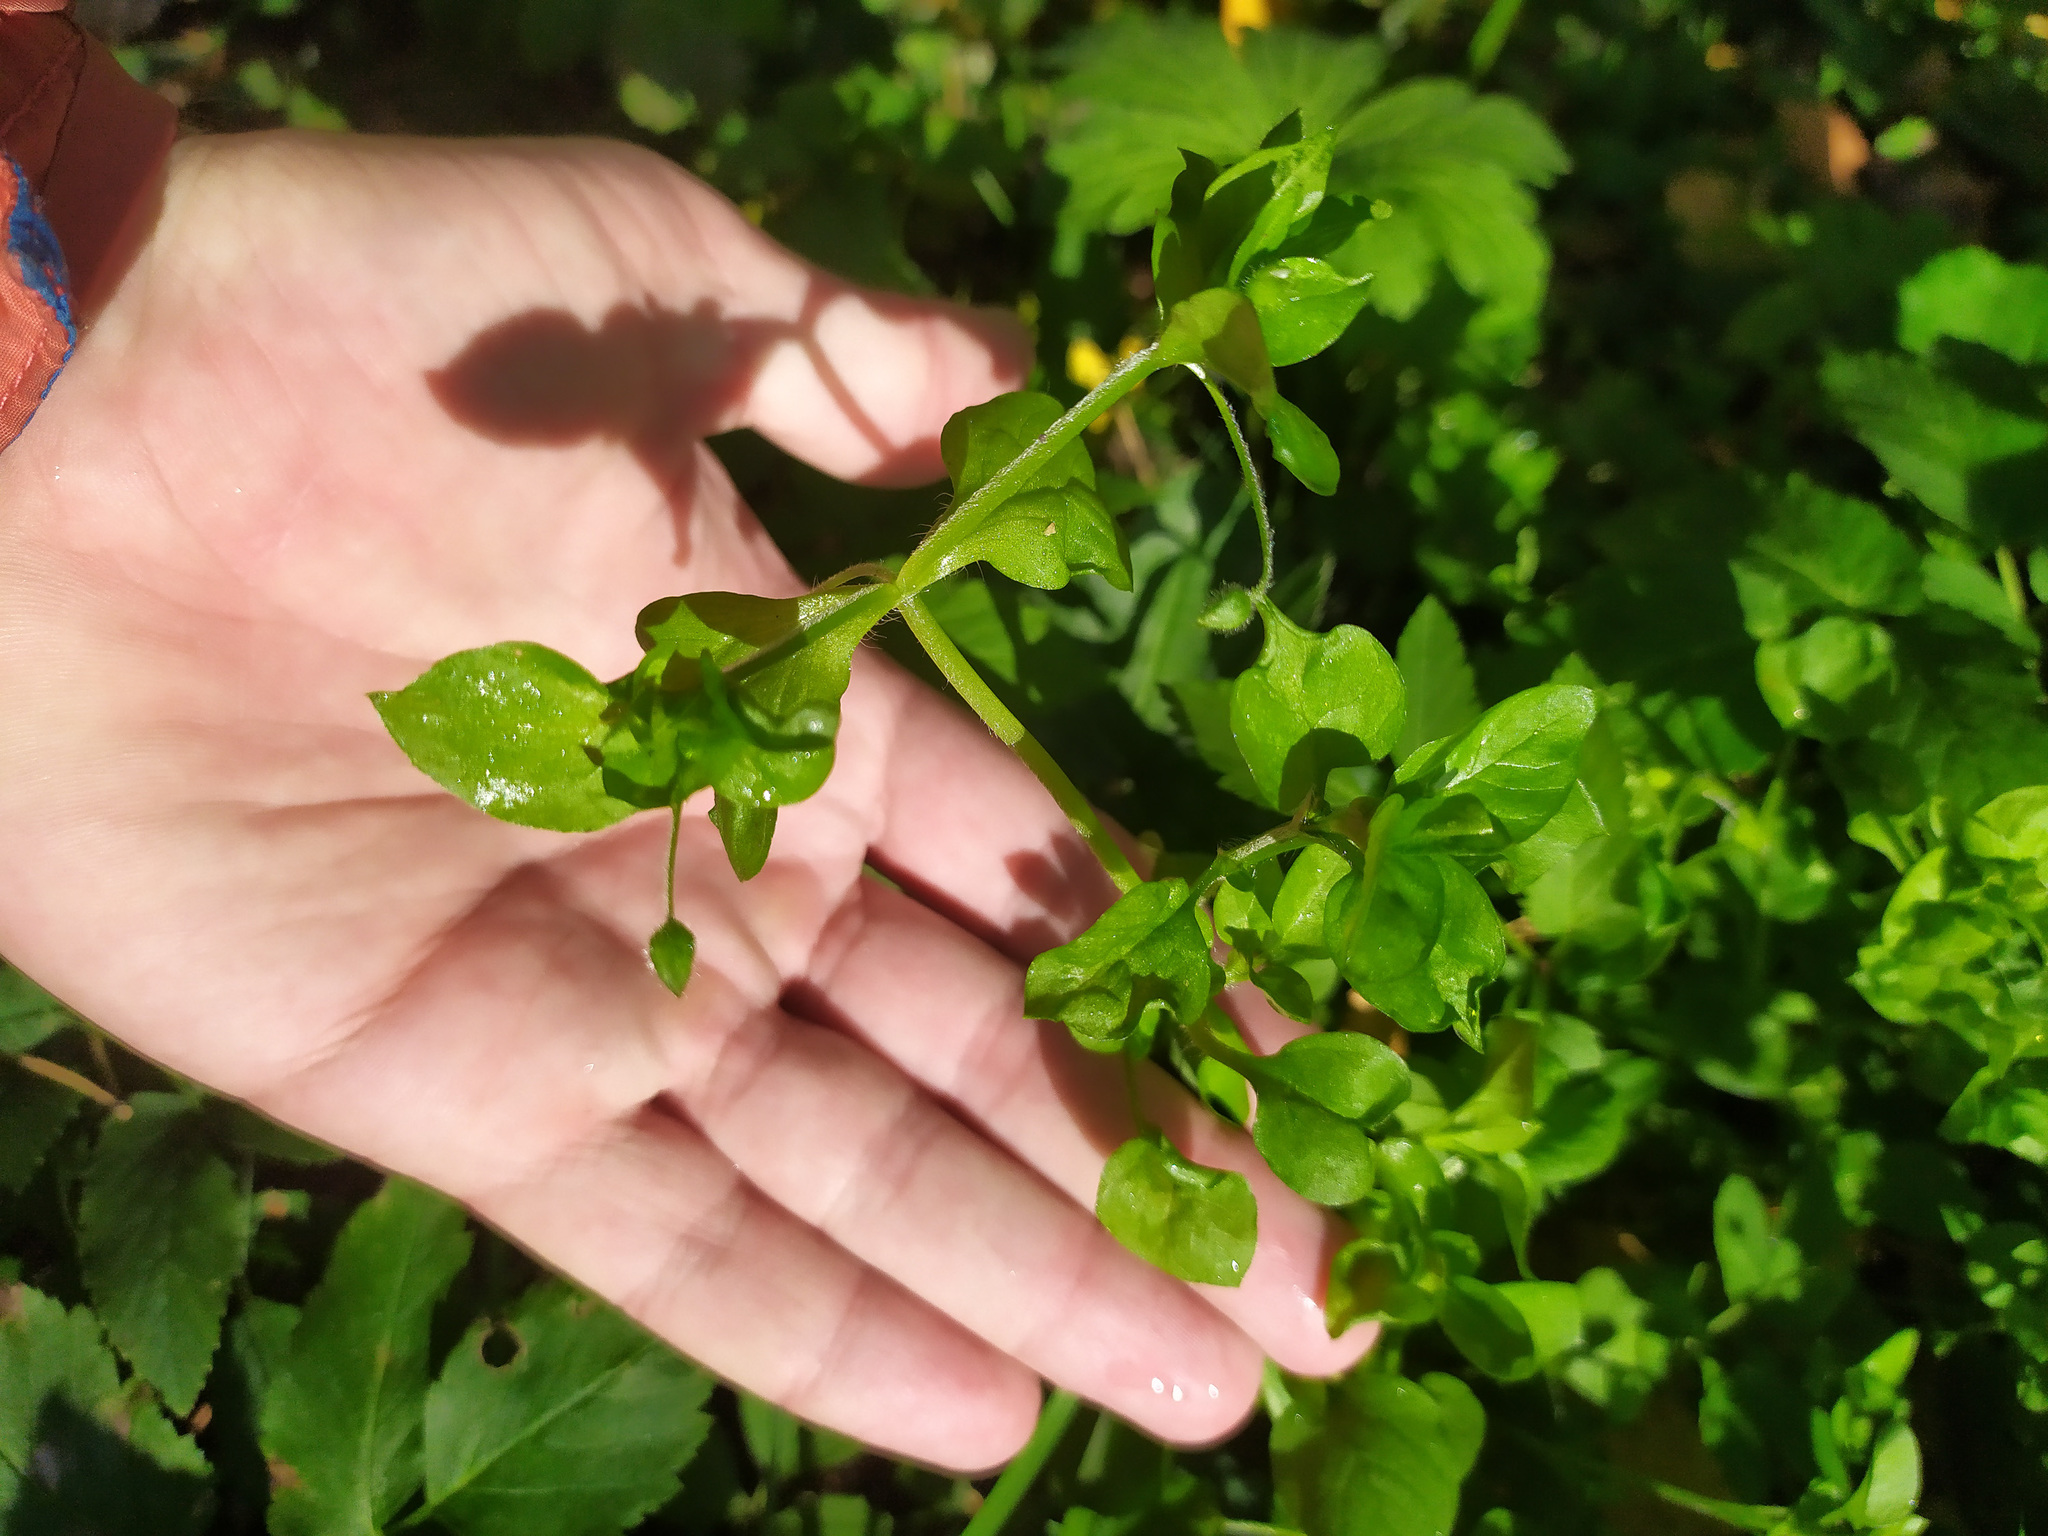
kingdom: Plantae
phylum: Tracheophyta
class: Magnoliopsida
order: Caryophyllales
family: Caryophyllaceae
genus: Stellaria
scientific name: Stellaria media
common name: Common chickweed
